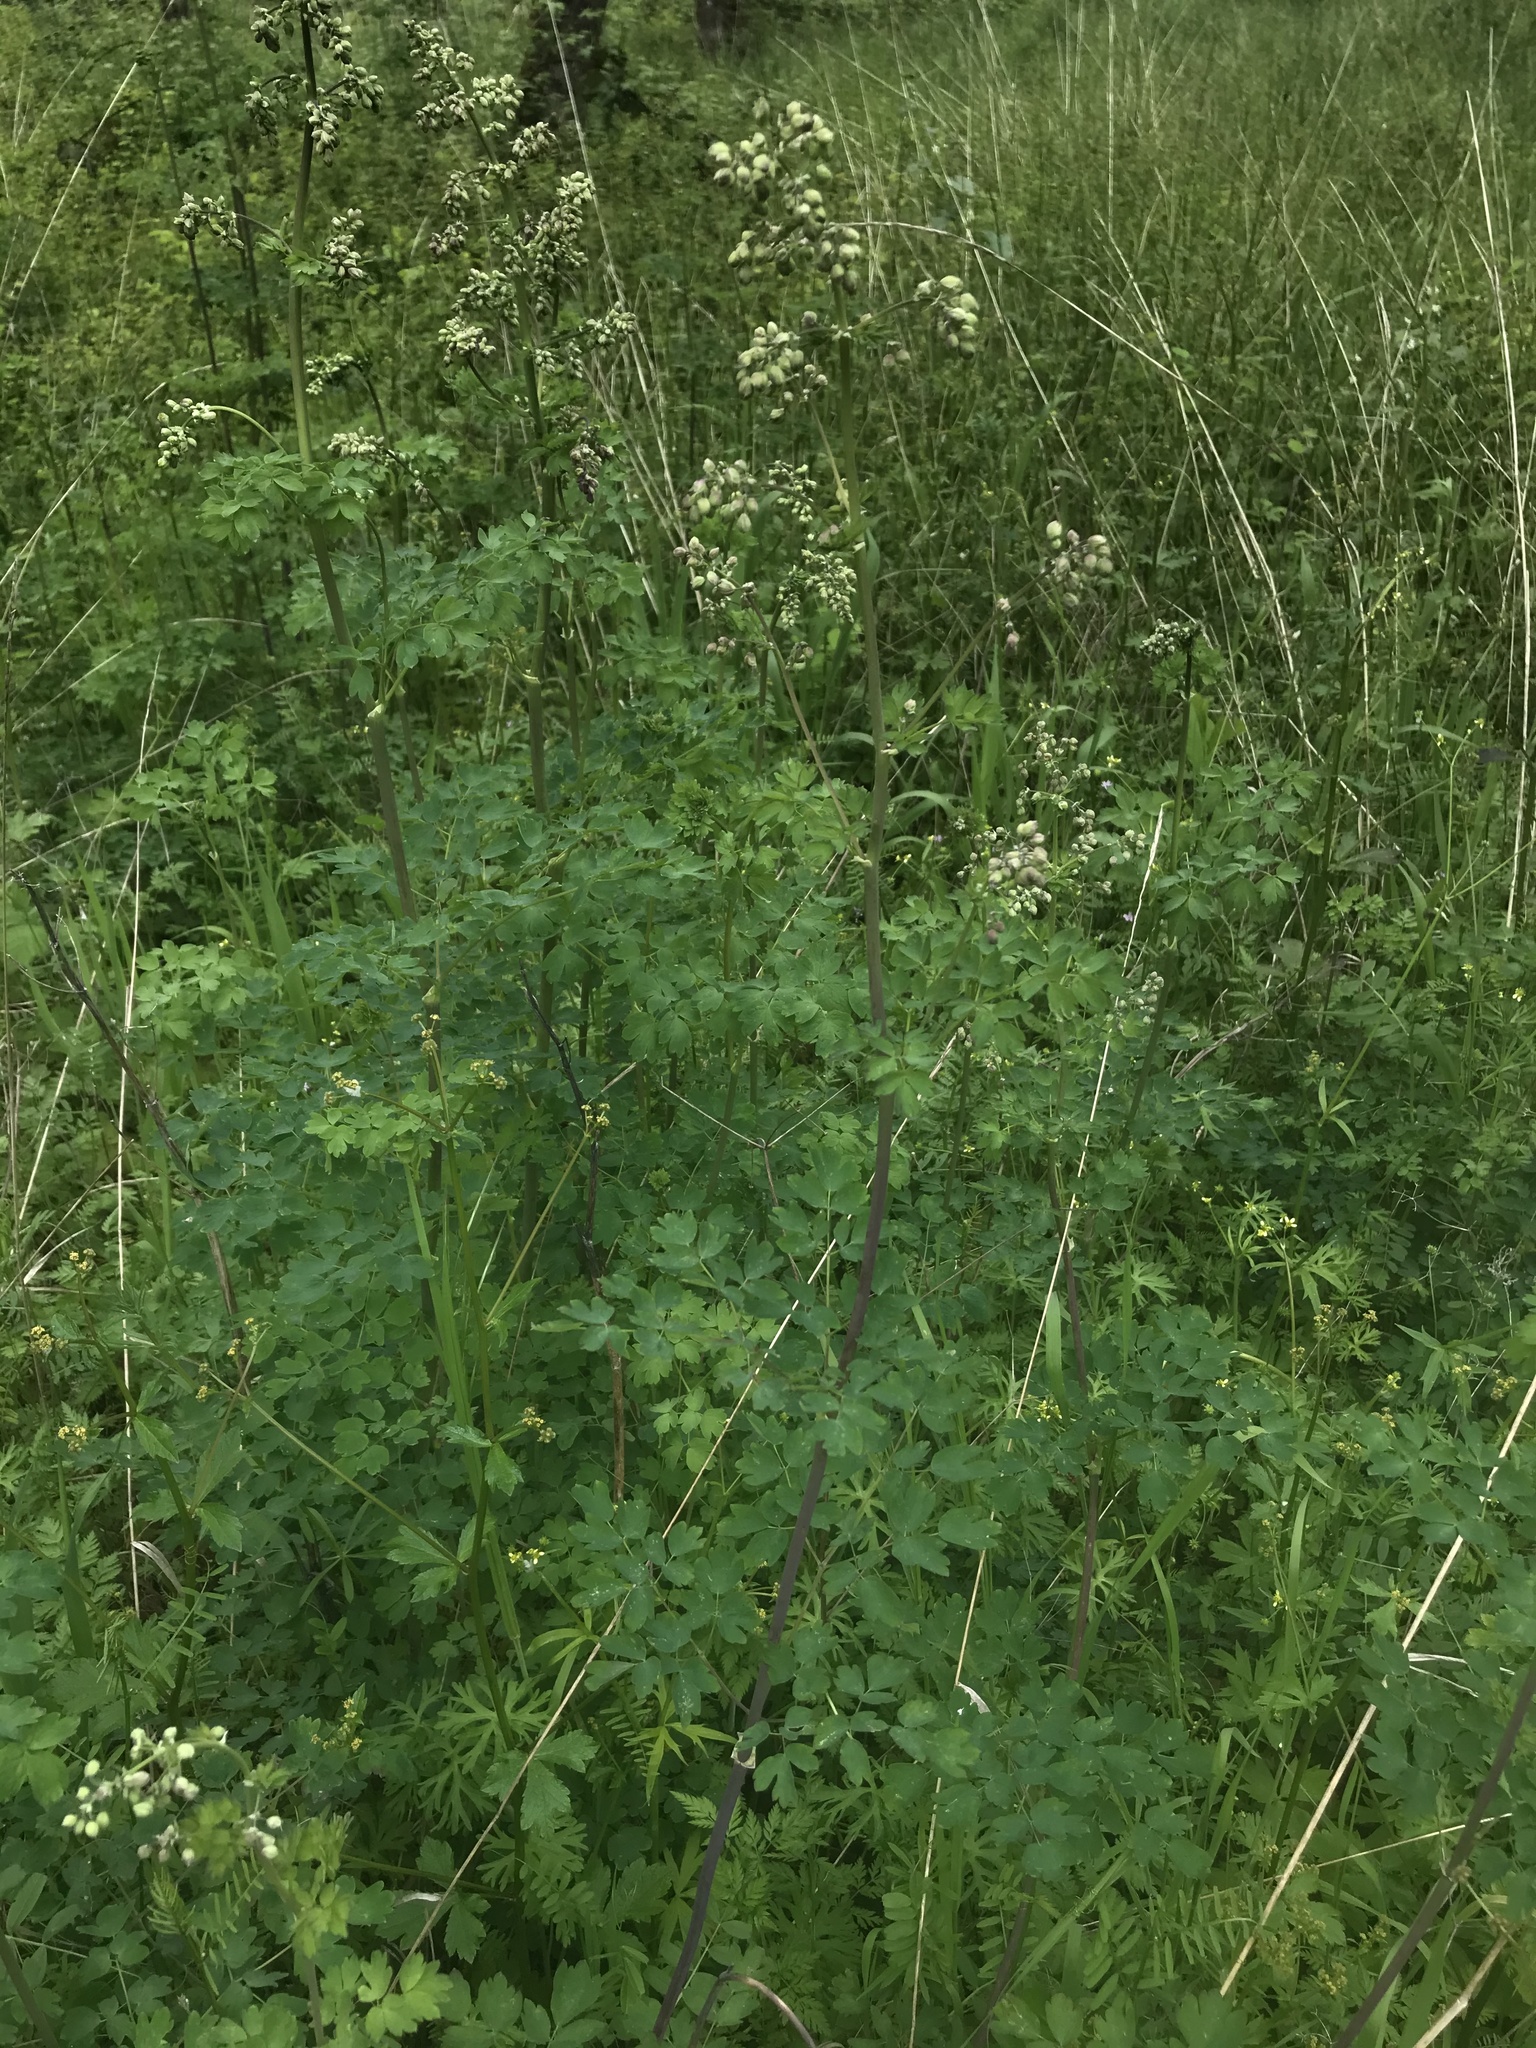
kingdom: Plantae
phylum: Tracheophyta
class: Magnoliopsida
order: Ranunculales
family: Ranunculaceae
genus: Thalictrum
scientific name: Thalictrum fendleri
